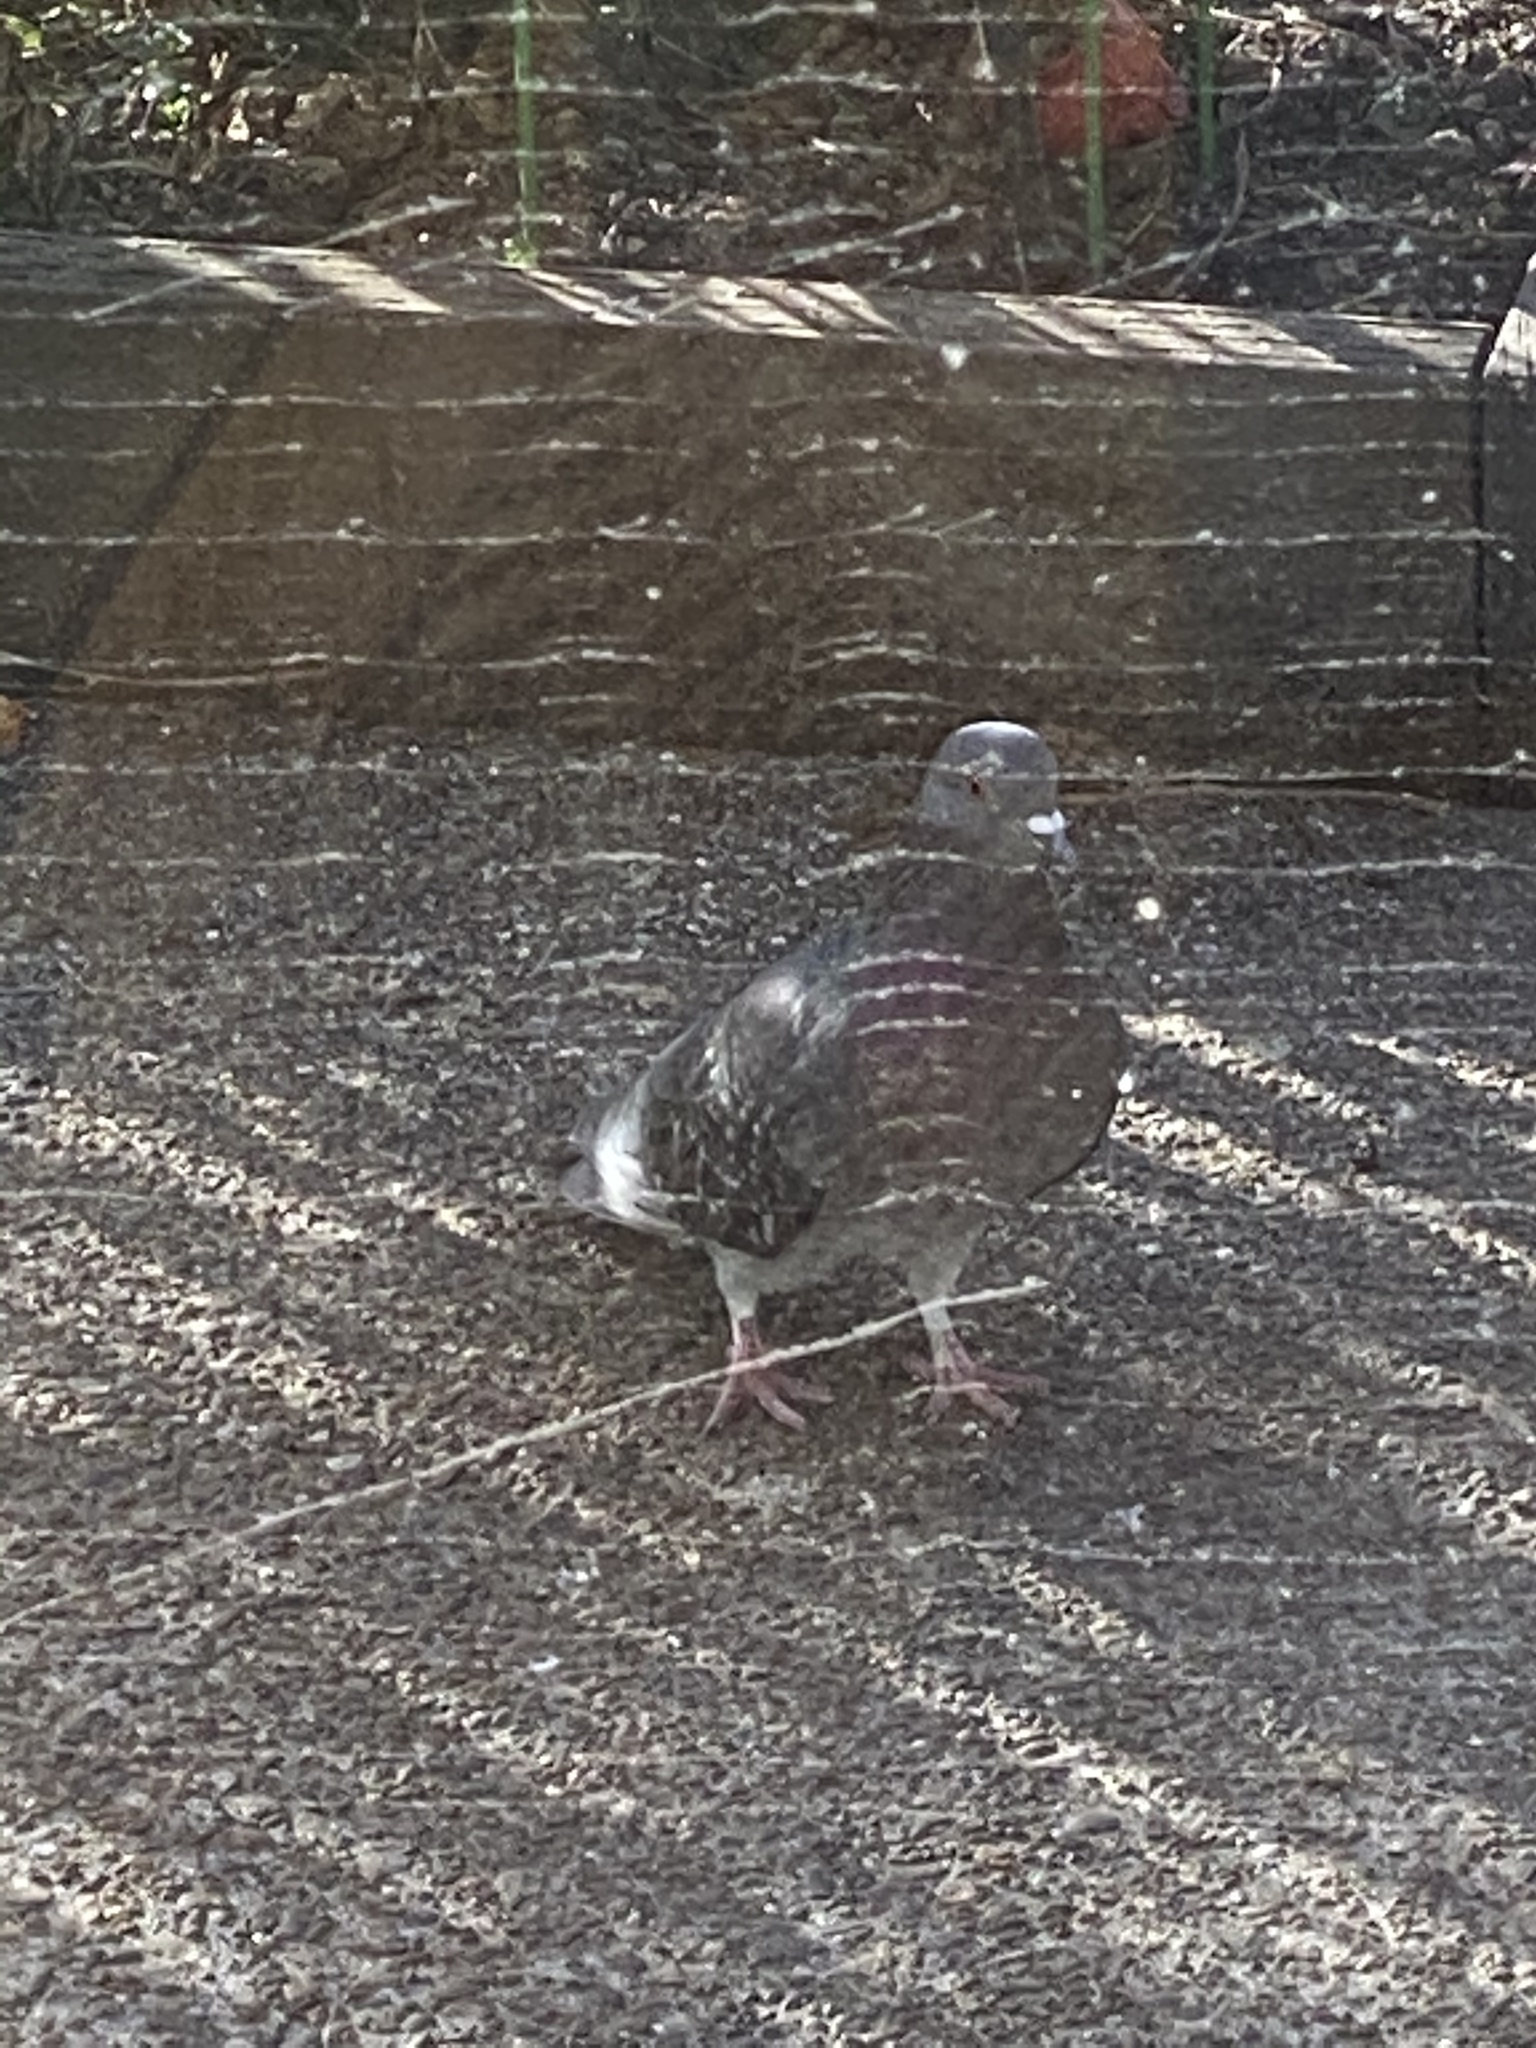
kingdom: Animalia
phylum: Chordata
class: Aves
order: Columbiformes
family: Columbidae
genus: Columba
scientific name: Columba livia
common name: Rock pigeon
